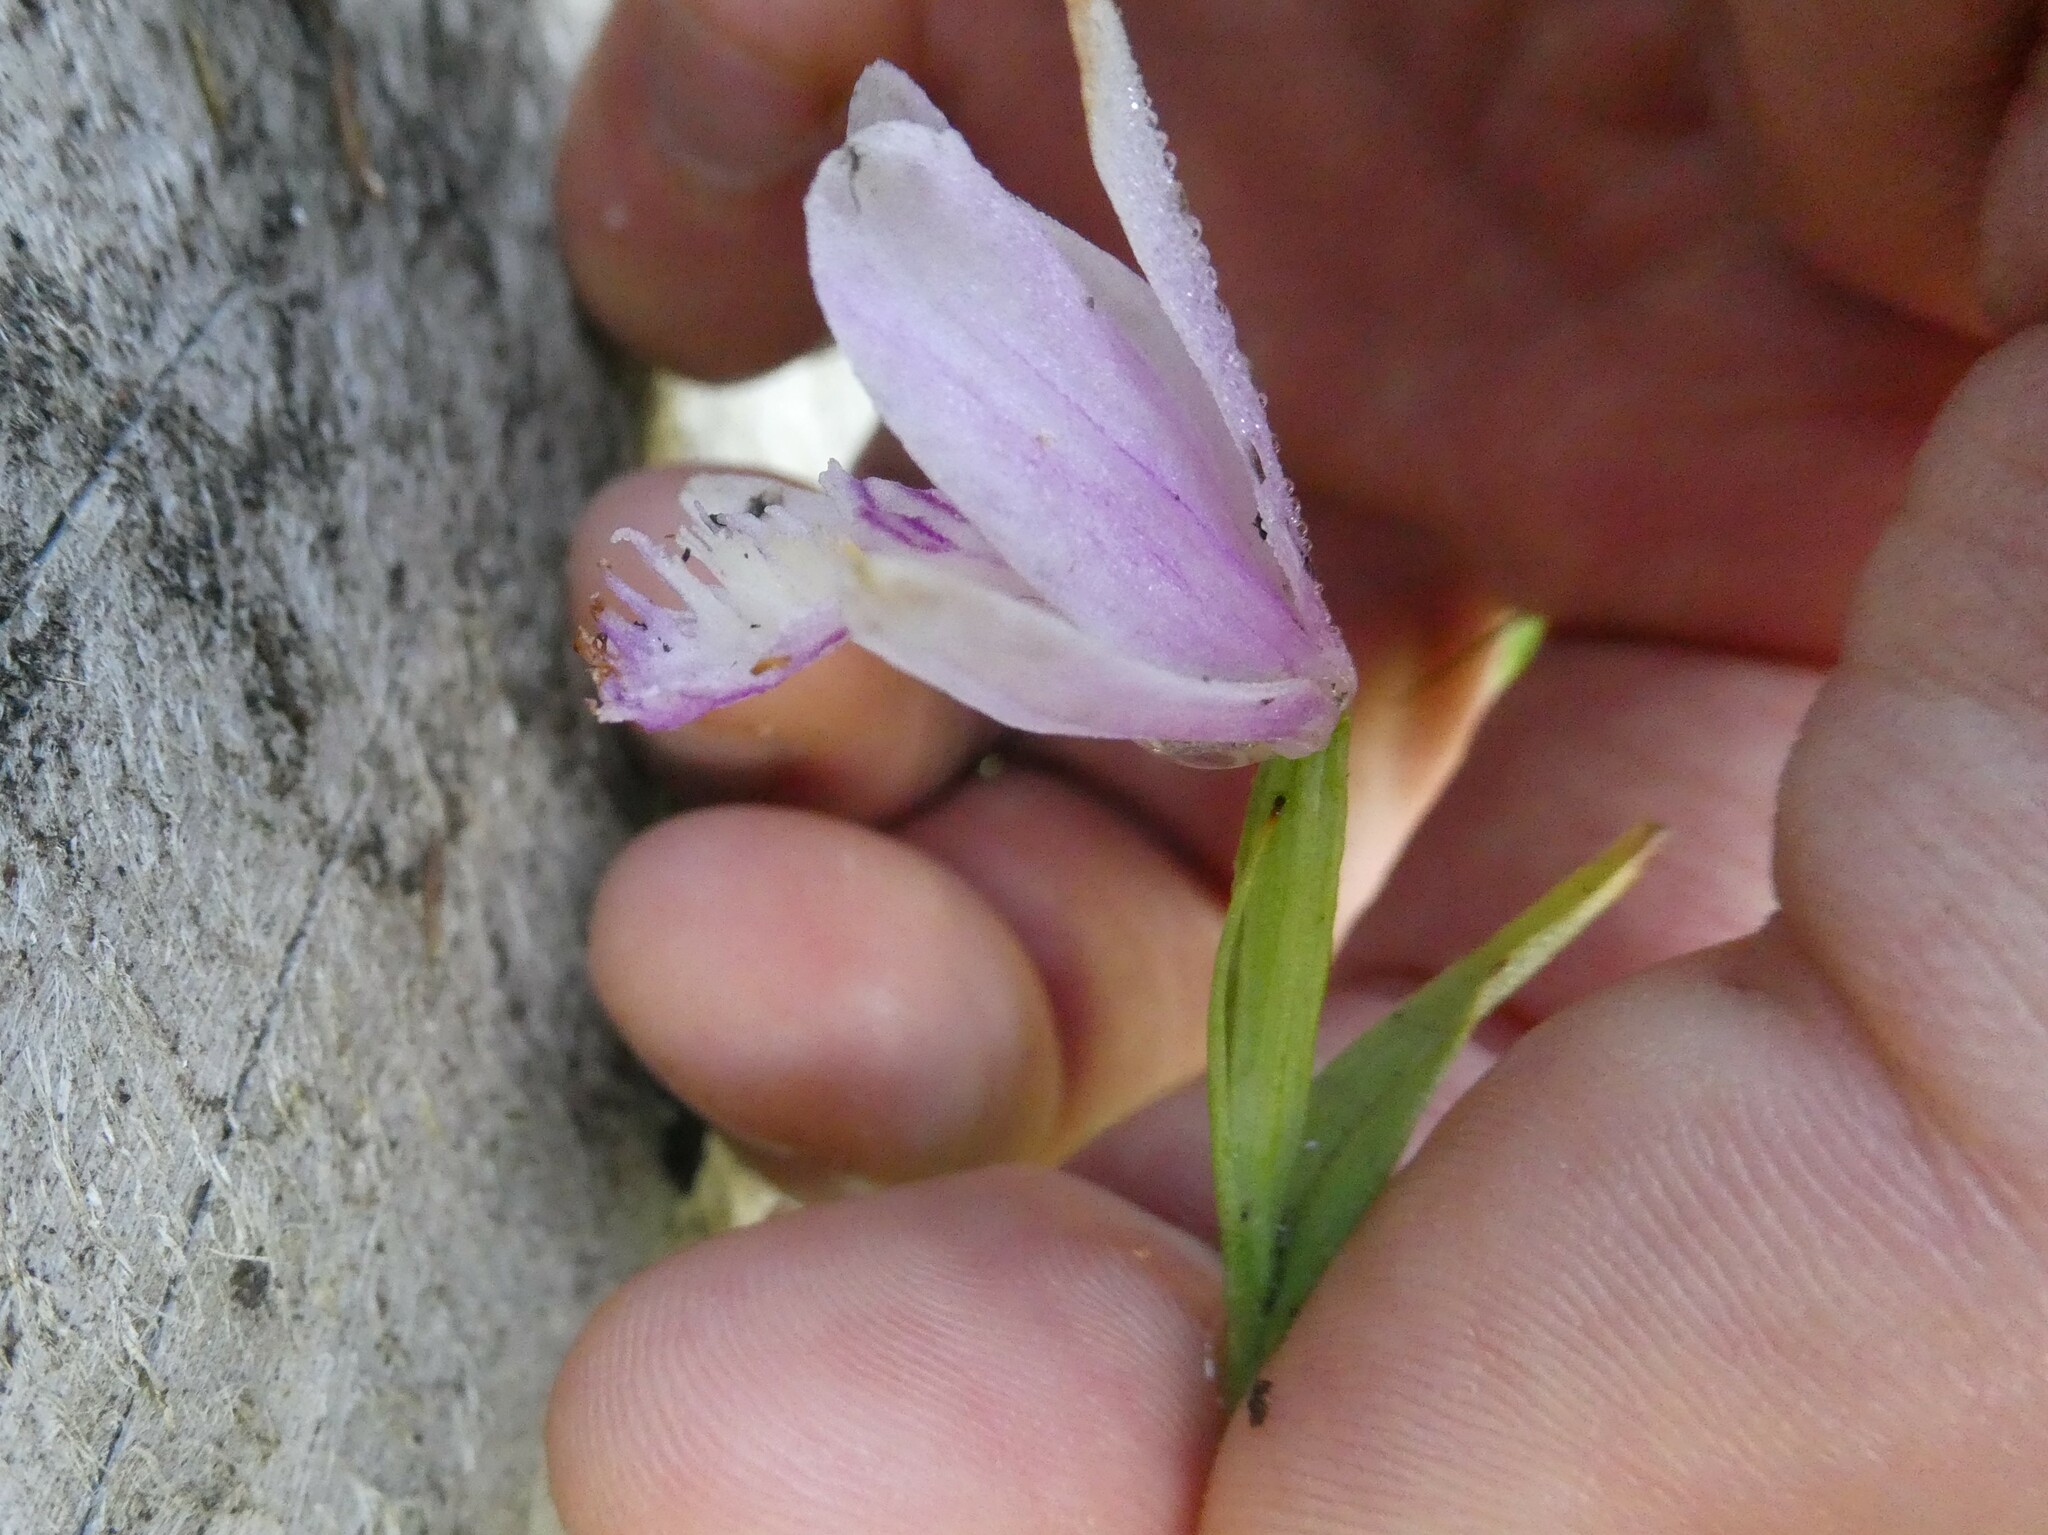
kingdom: Plantae
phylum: Tracheophyta
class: Liliopsida
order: Asparagales
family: Orchidaceae
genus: Pogonia
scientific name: Pogonia ophioglossoides
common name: Rose pogonia
